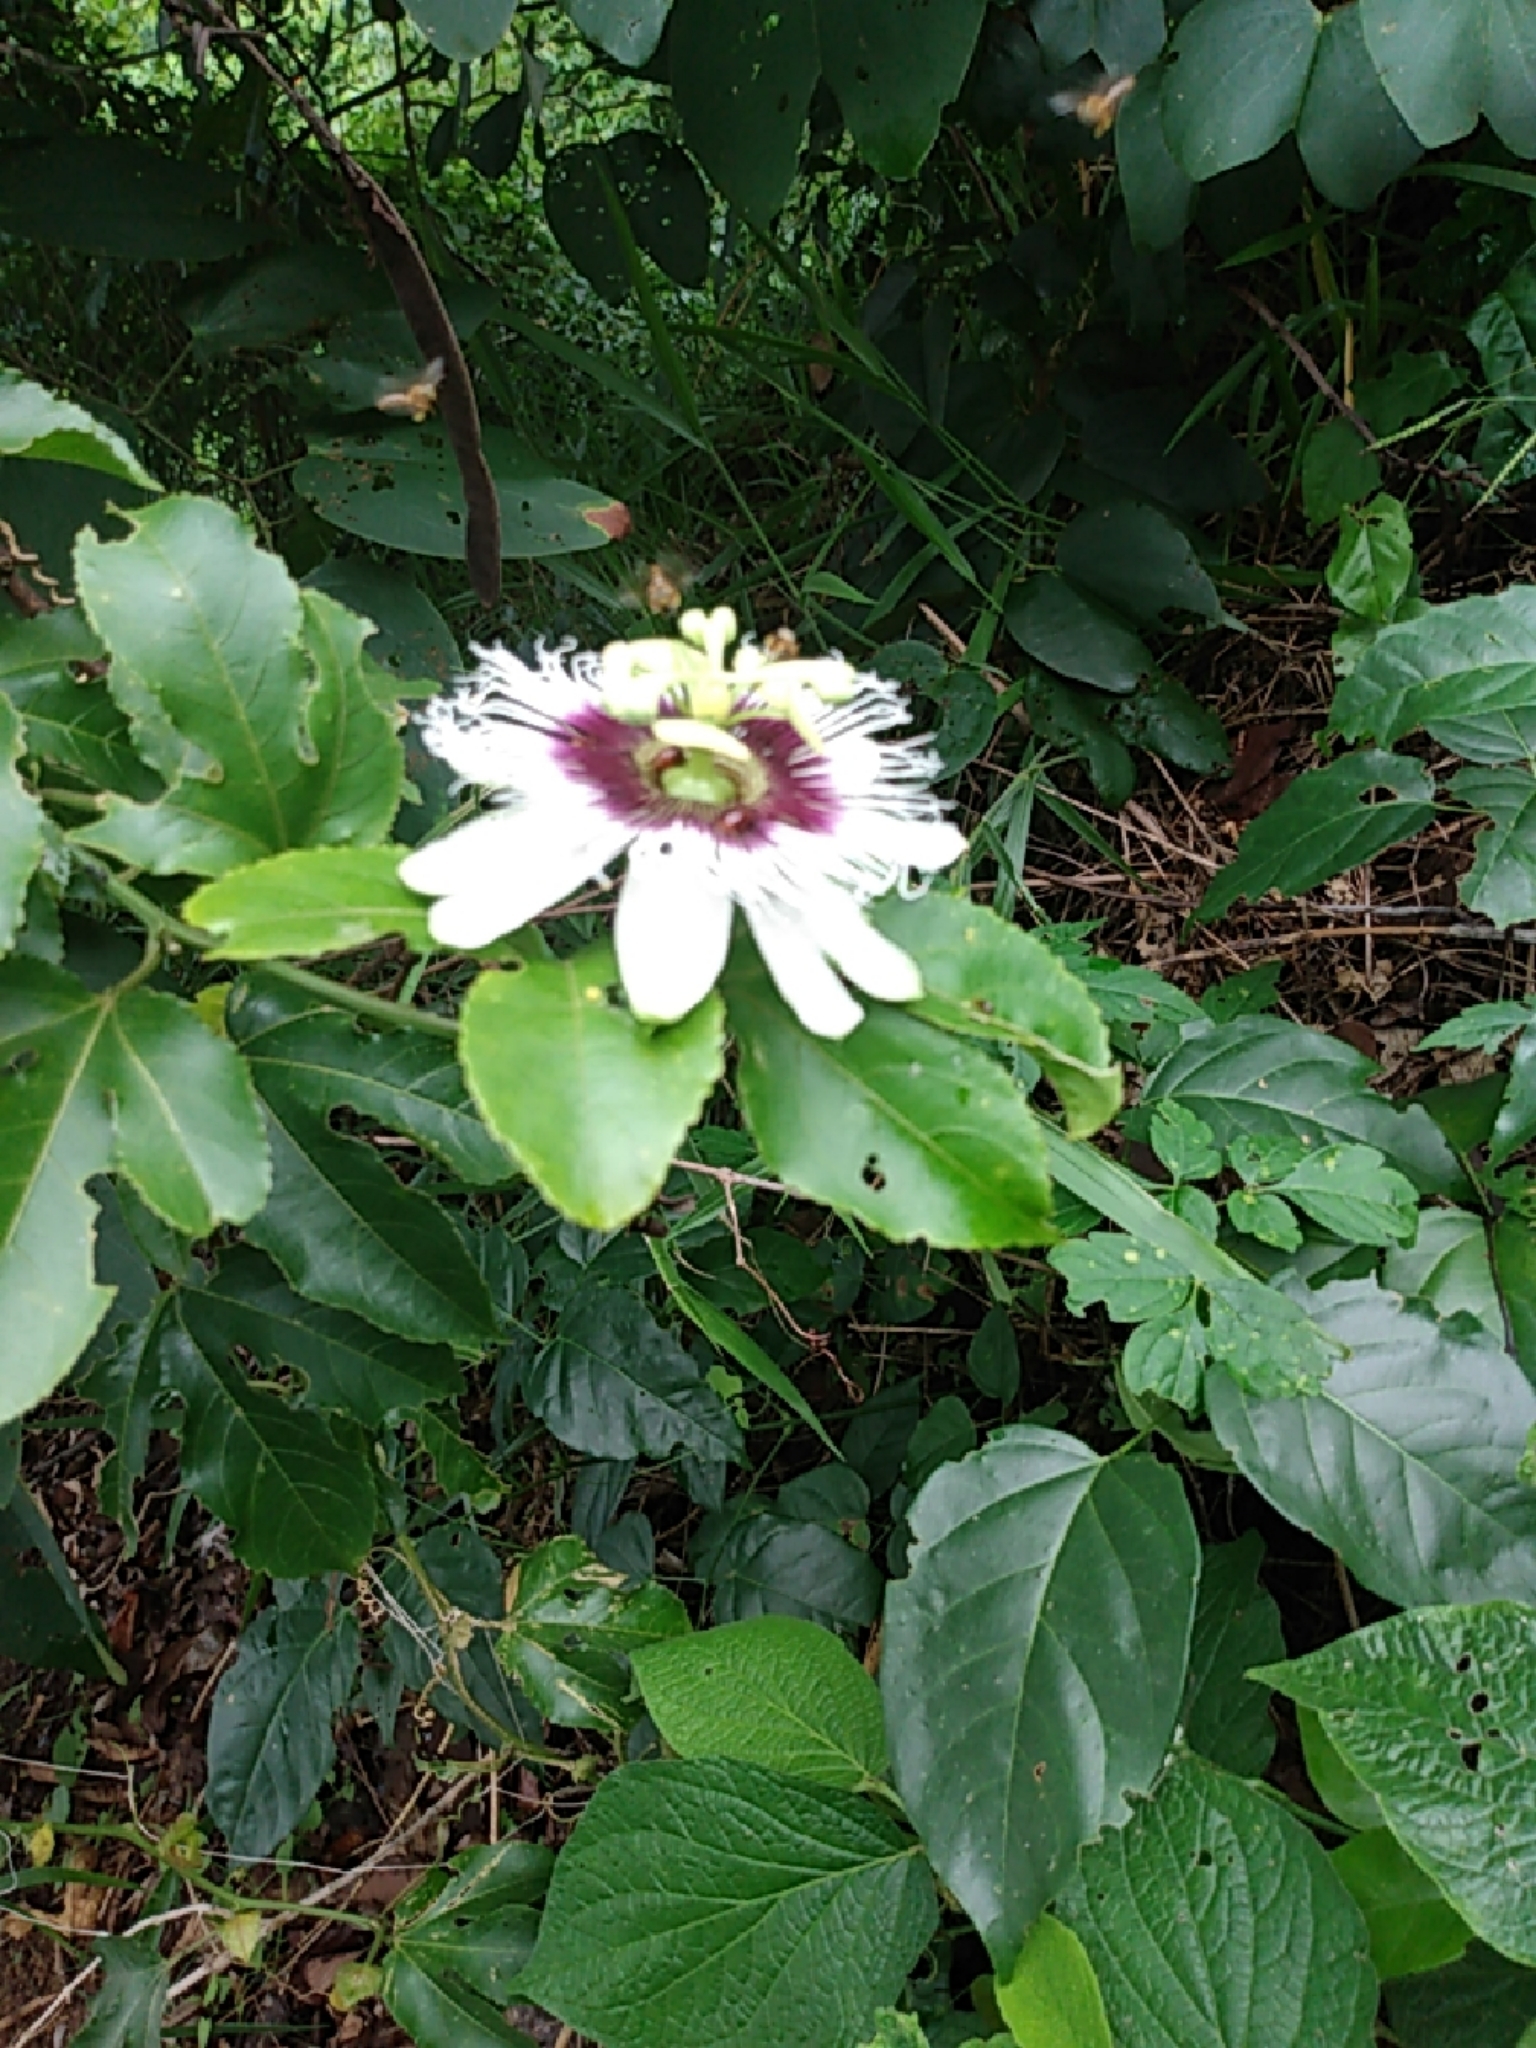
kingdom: Plantae
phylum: Tracheophyta
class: Magnoliopsida
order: Malpighiales
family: Passifloraceae
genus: Passiflora
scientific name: Passiflora edulis
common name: Purple granadilla
